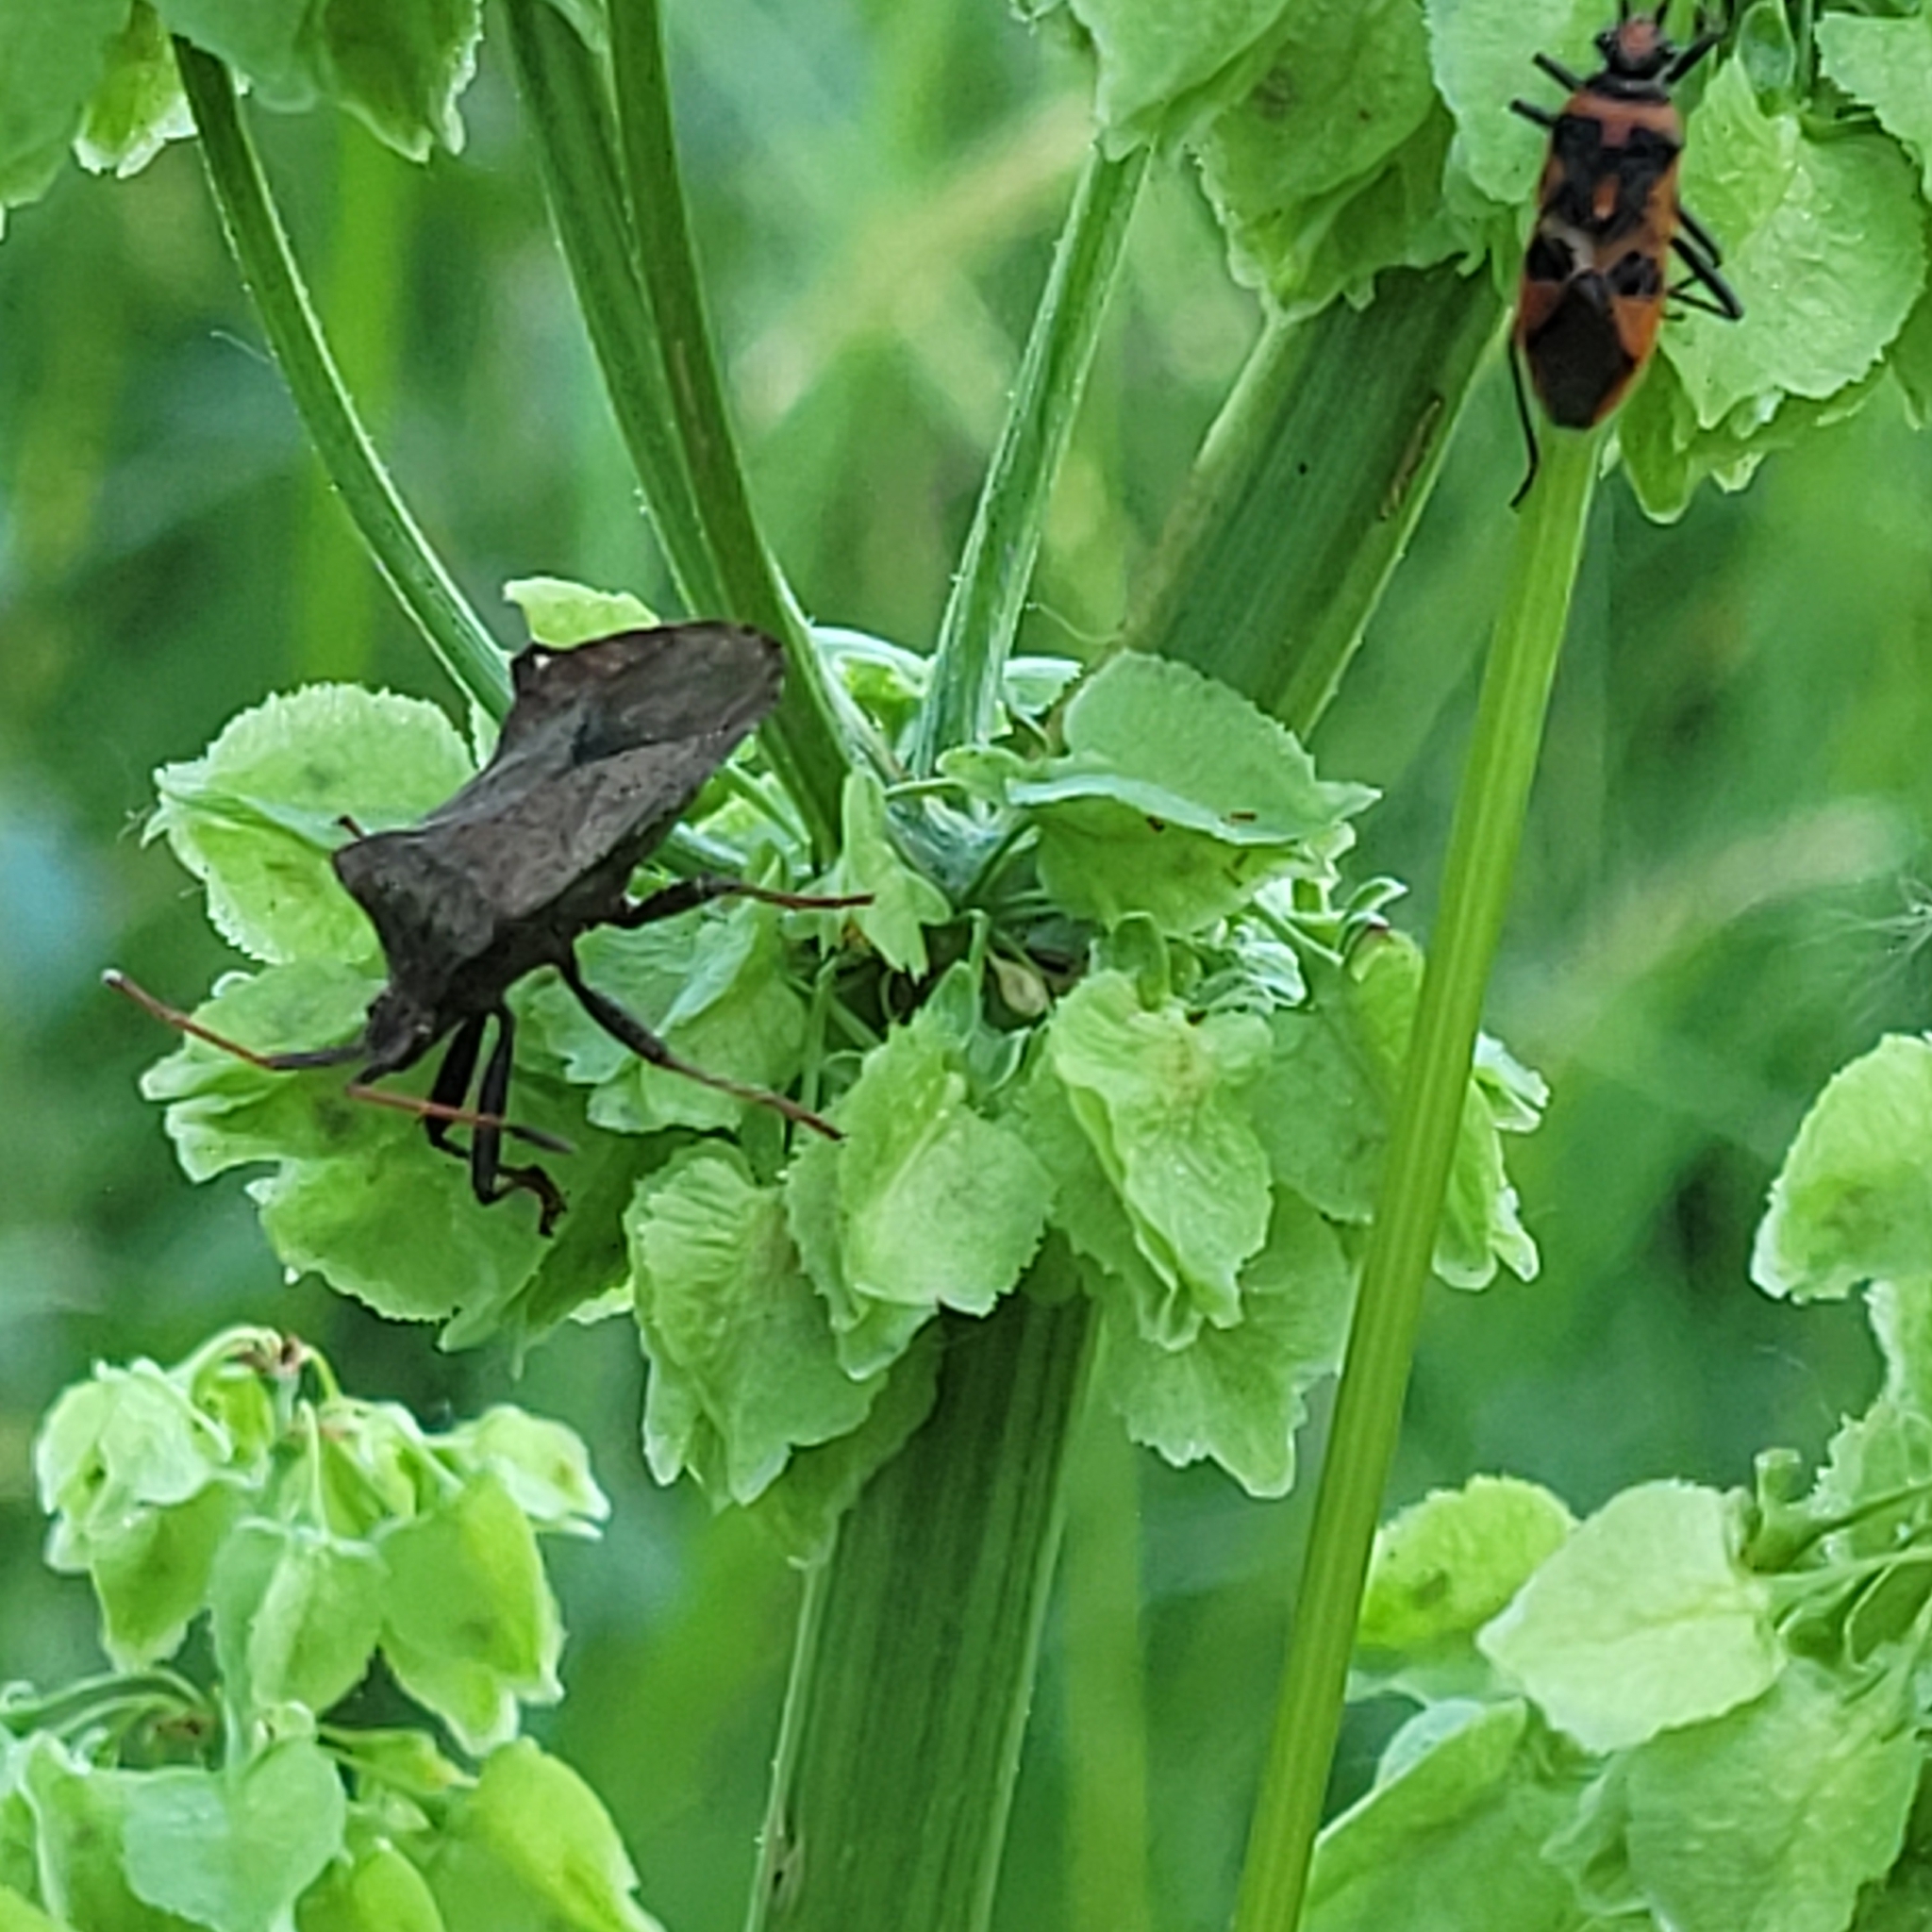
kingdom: Animalia
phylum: Arthropoda
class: Insecta
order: Hemiptera
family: Coreidae
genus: Coreus
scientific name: Coreus marginatus
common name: Dock bug
